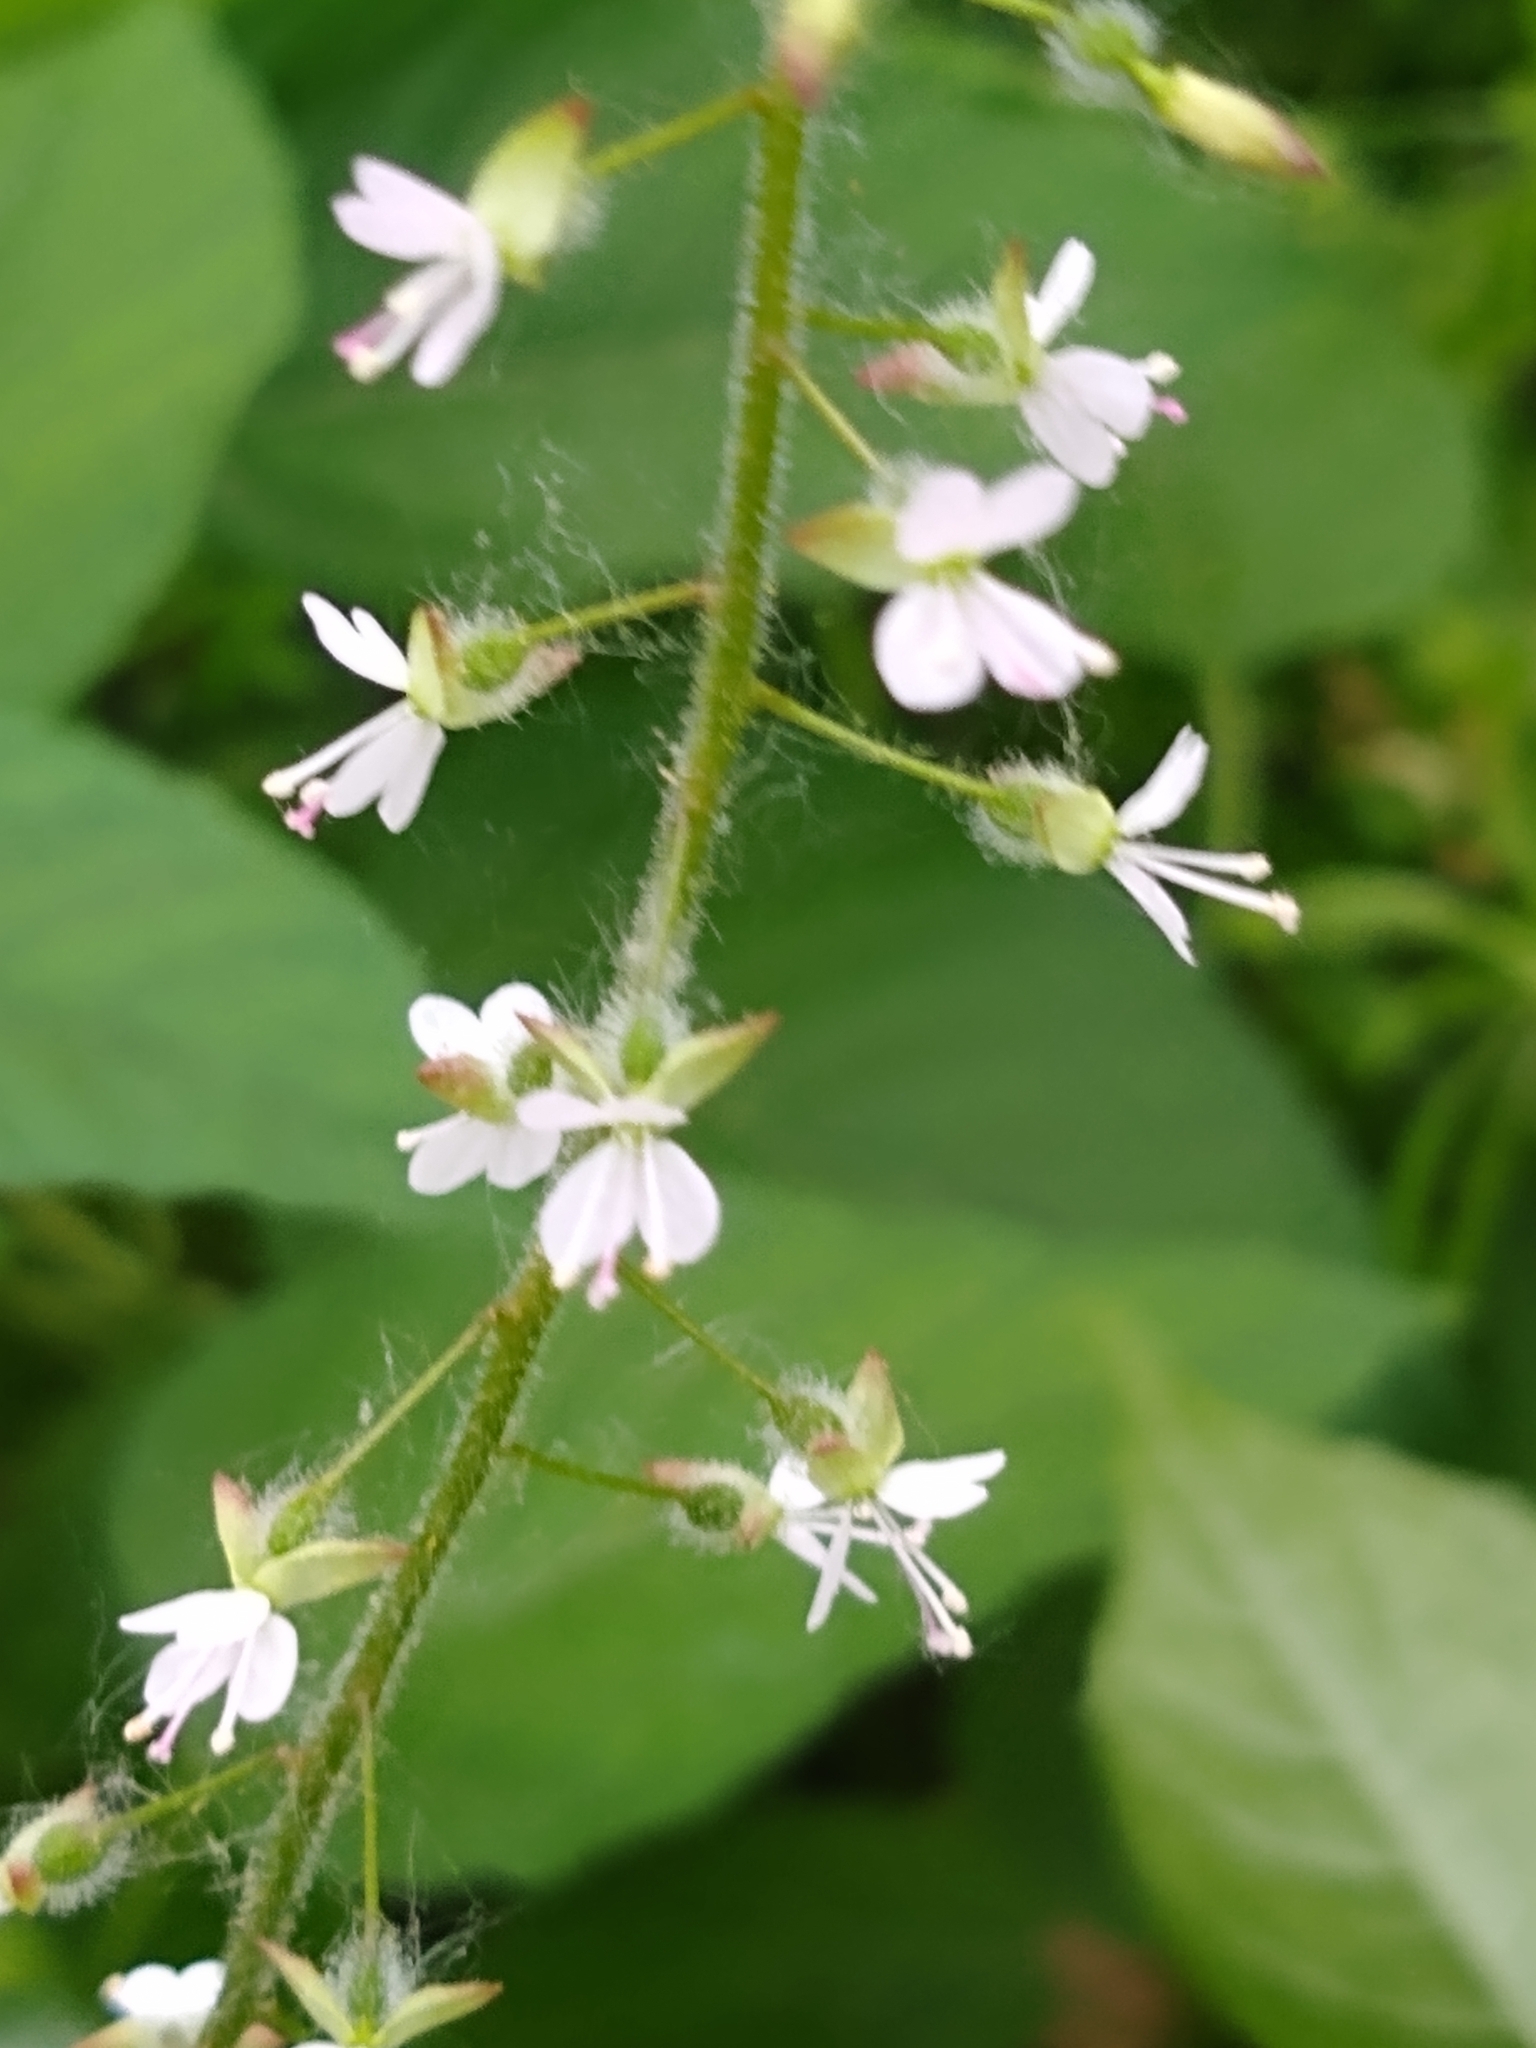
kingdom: Plantae
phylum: Tracheophyta
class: Magnoliopsida
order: Myrtales
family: Onagraceae
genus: Circaea
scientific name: Circaea lutetiana
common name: Enchanter's-nightshade
